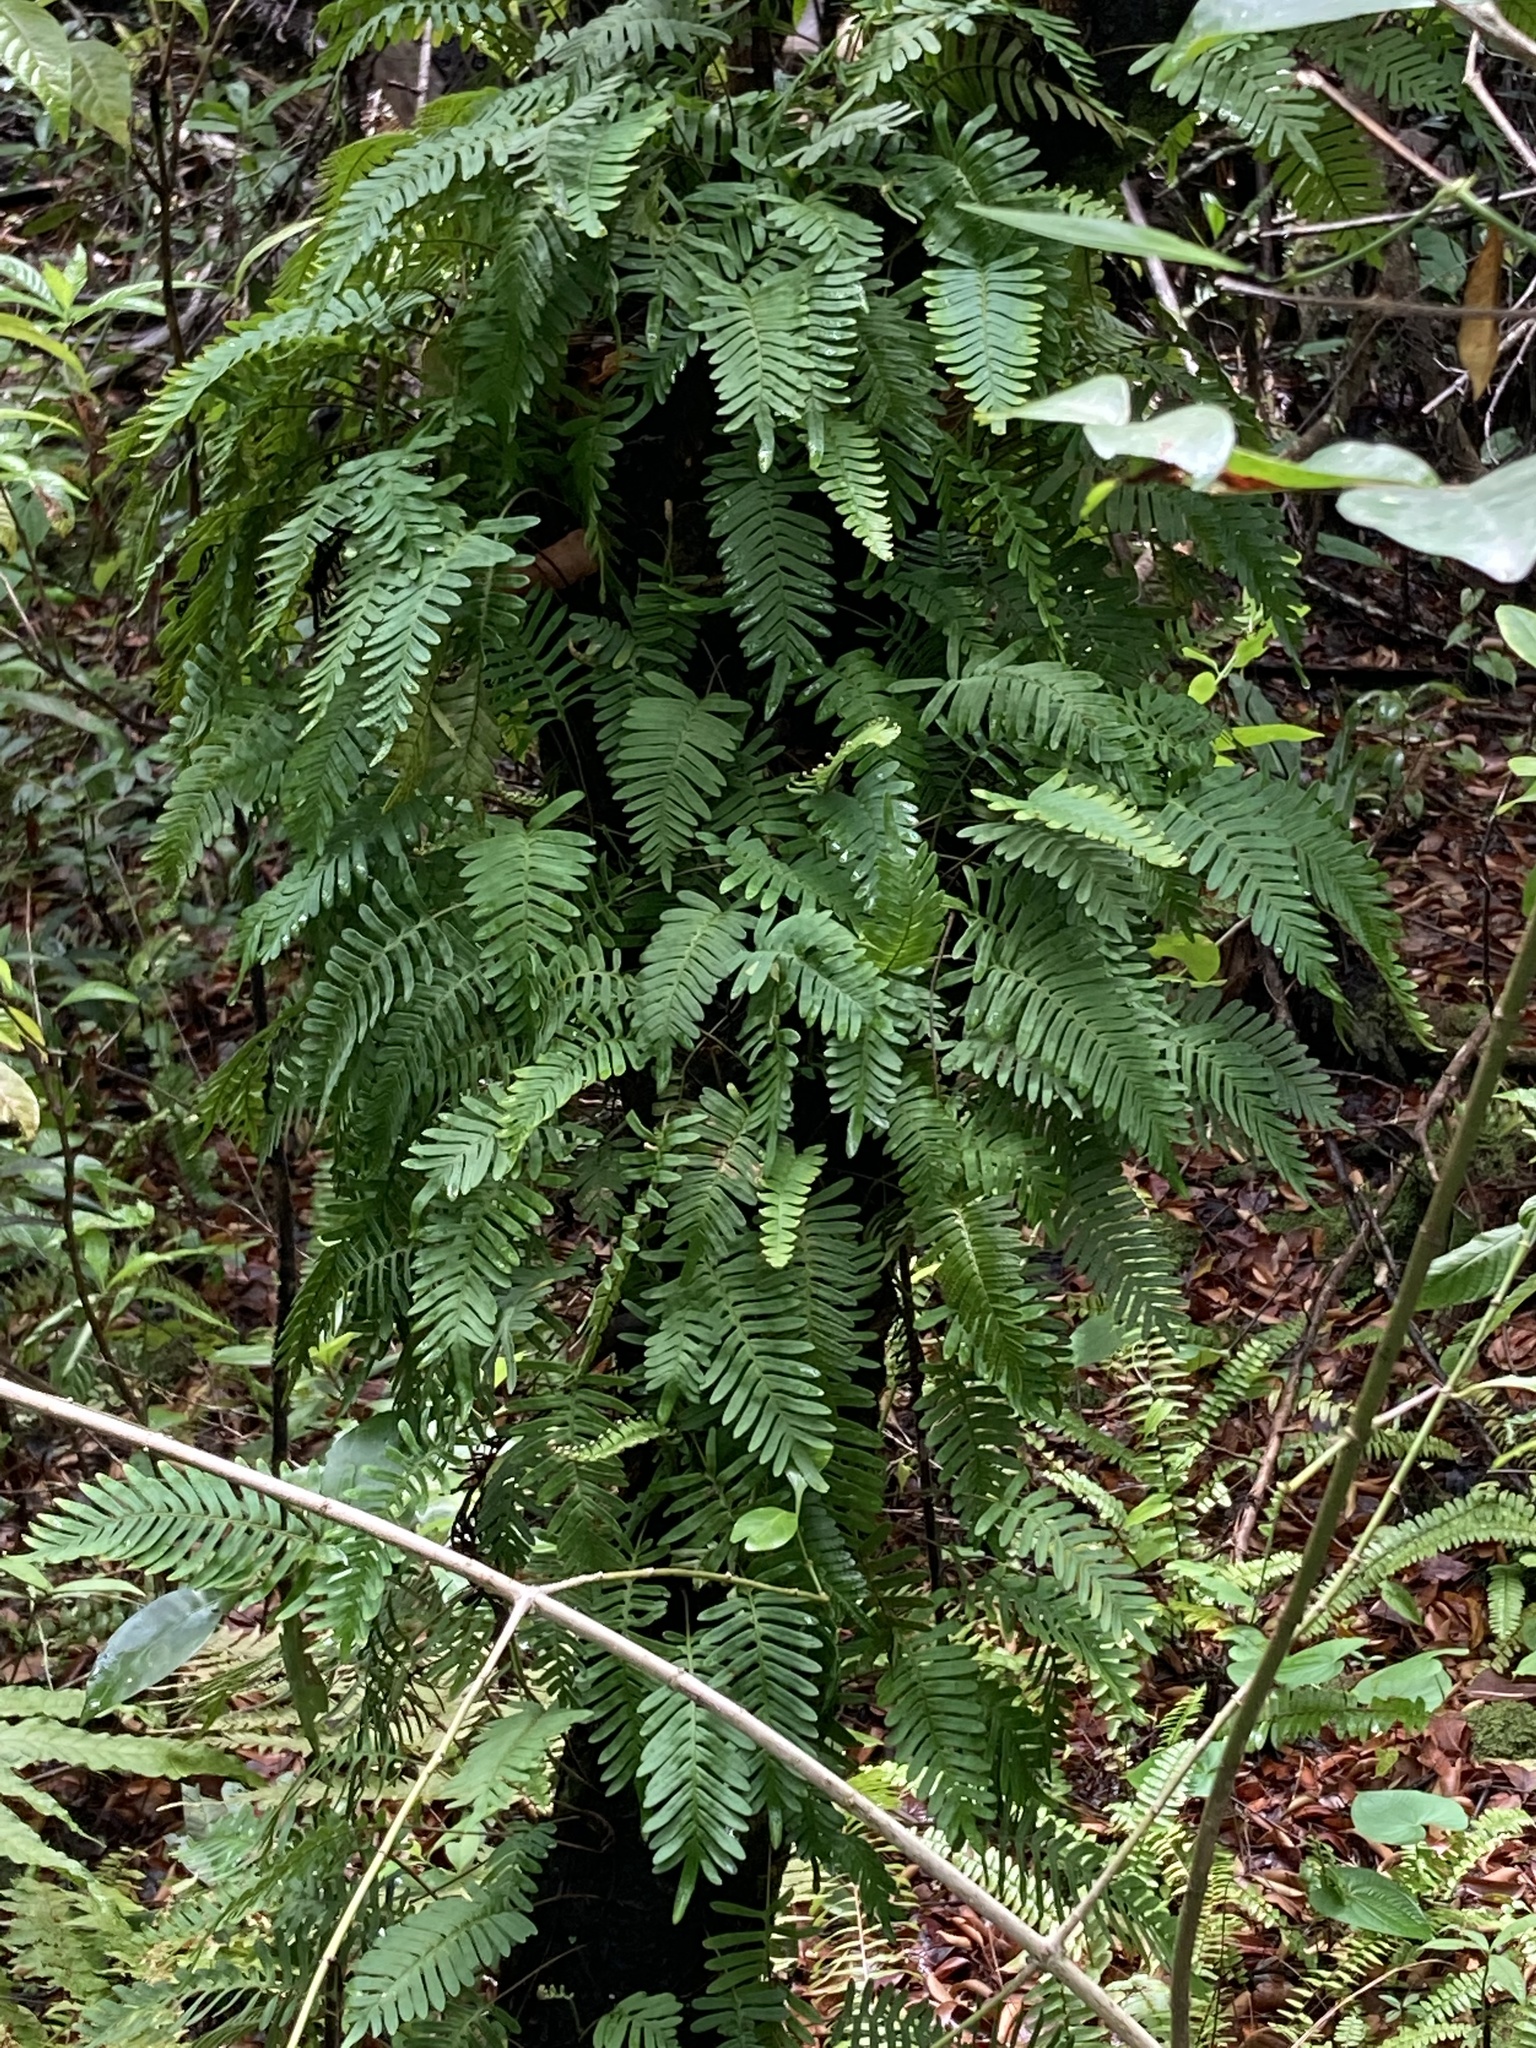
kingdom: Plantae
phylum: Tracheophyta
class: Polypodiopsida
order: Polypodiales
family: Polypodiaceae
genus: Pleopeltis
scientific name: Pleopeltis michauxiana
